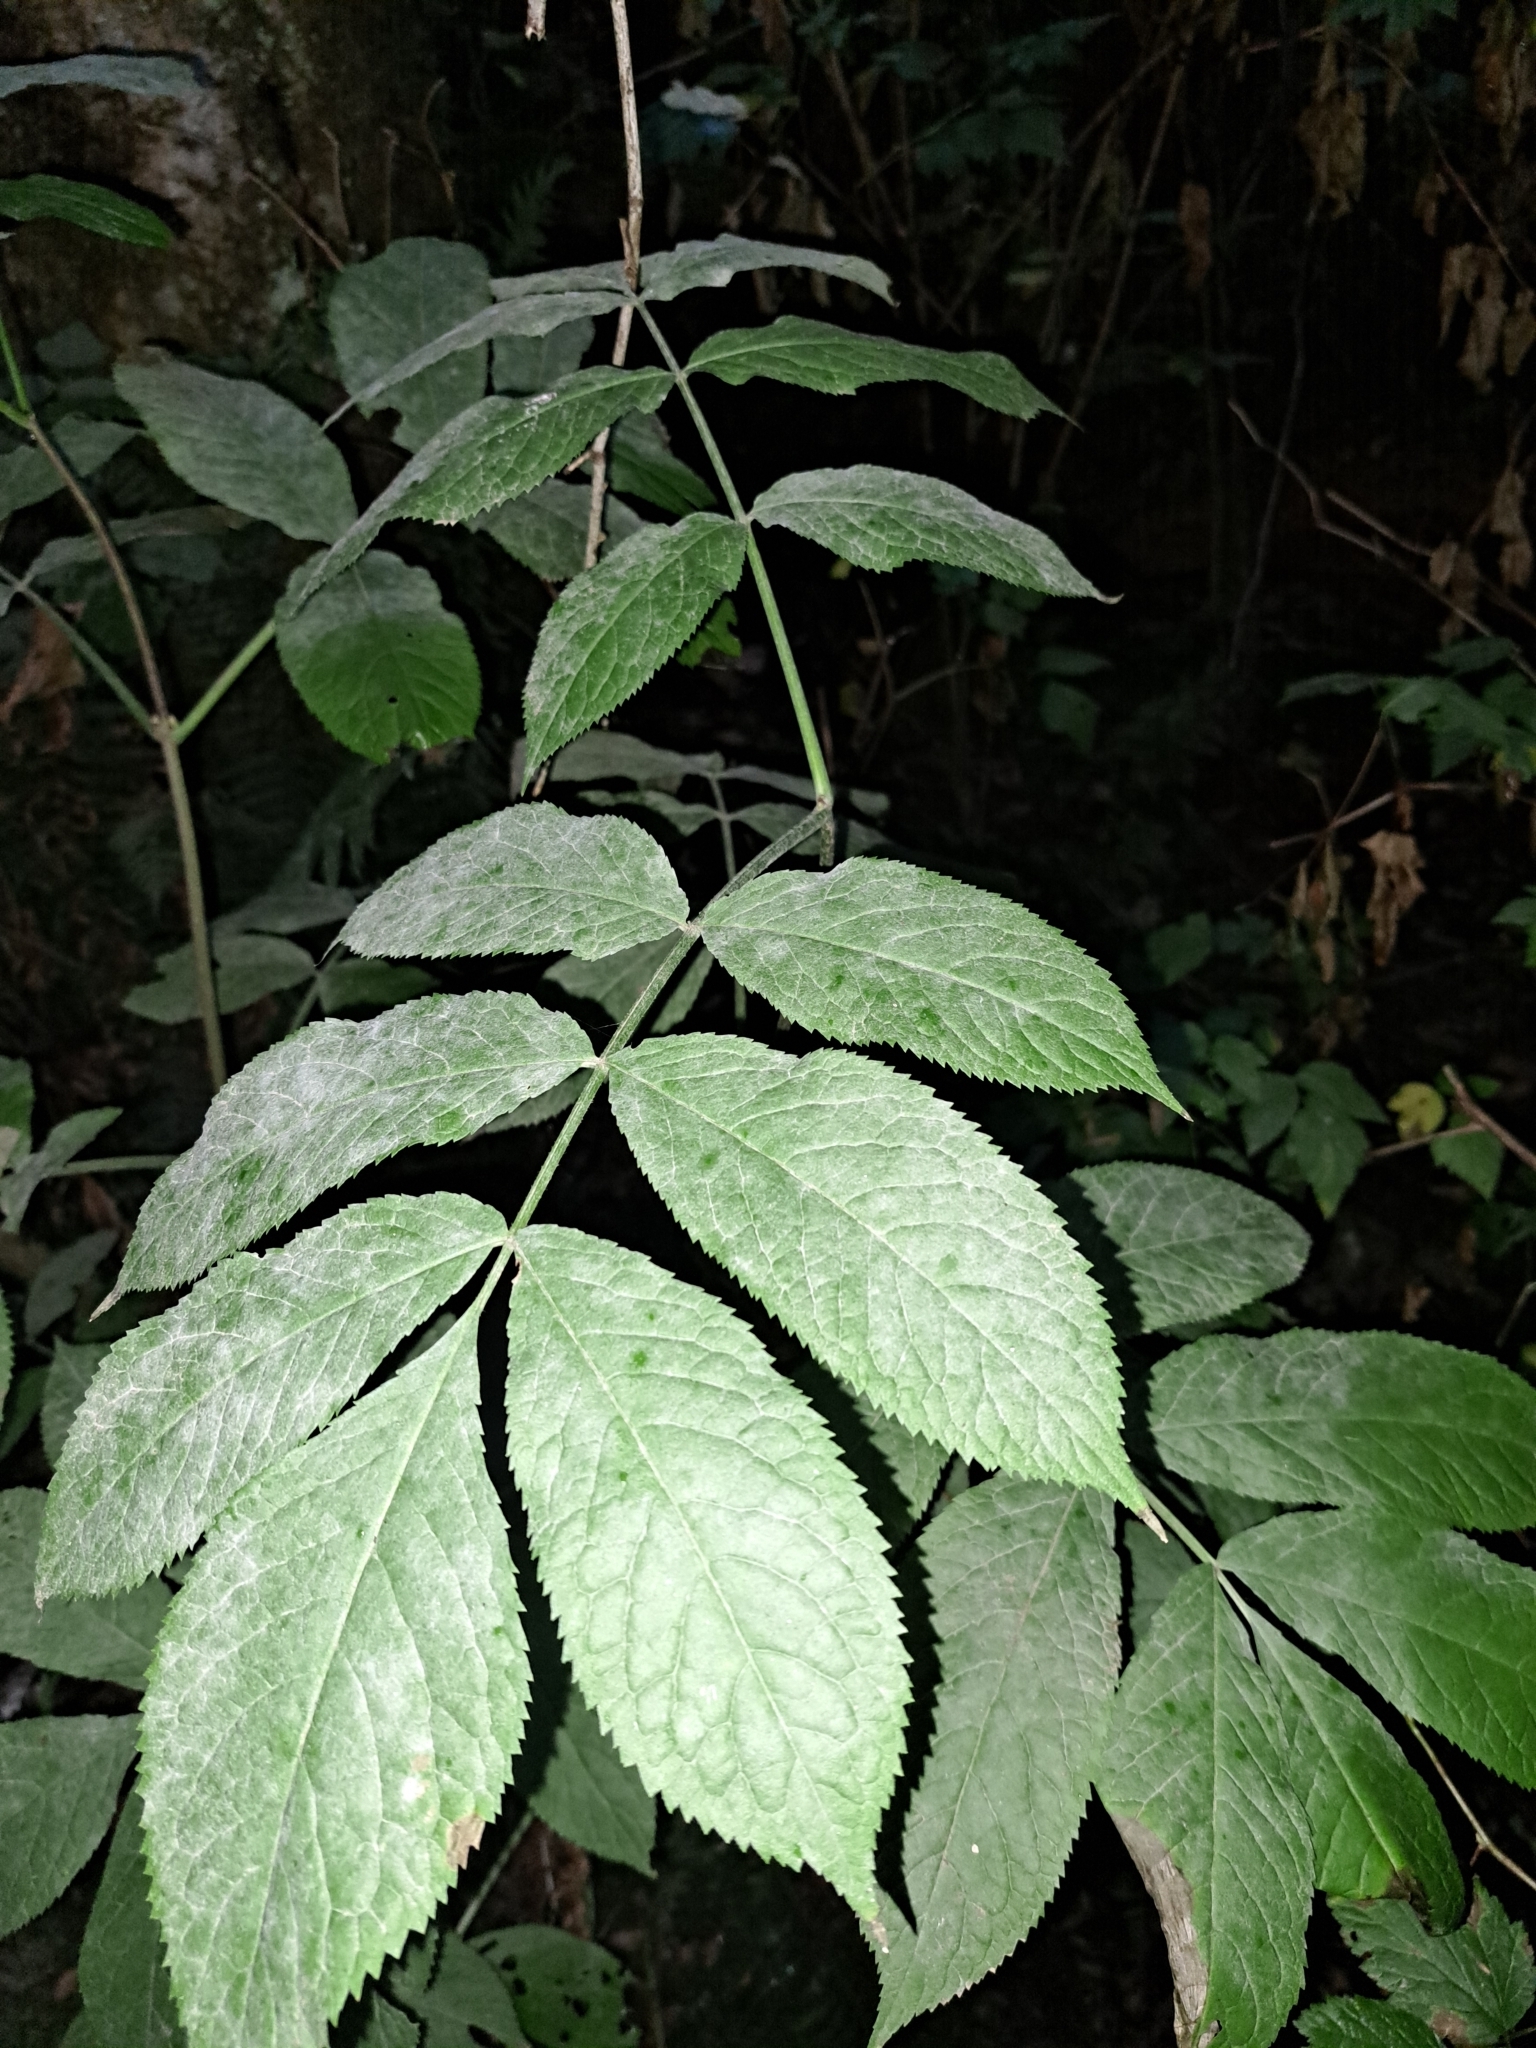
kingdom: Plantae
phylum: Tracheophyta
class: Magnoliopsida
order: Dipsacales
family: Viburnaceae
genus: Sambucus
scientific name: Sambucus racemosa
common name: Red-berried elder
